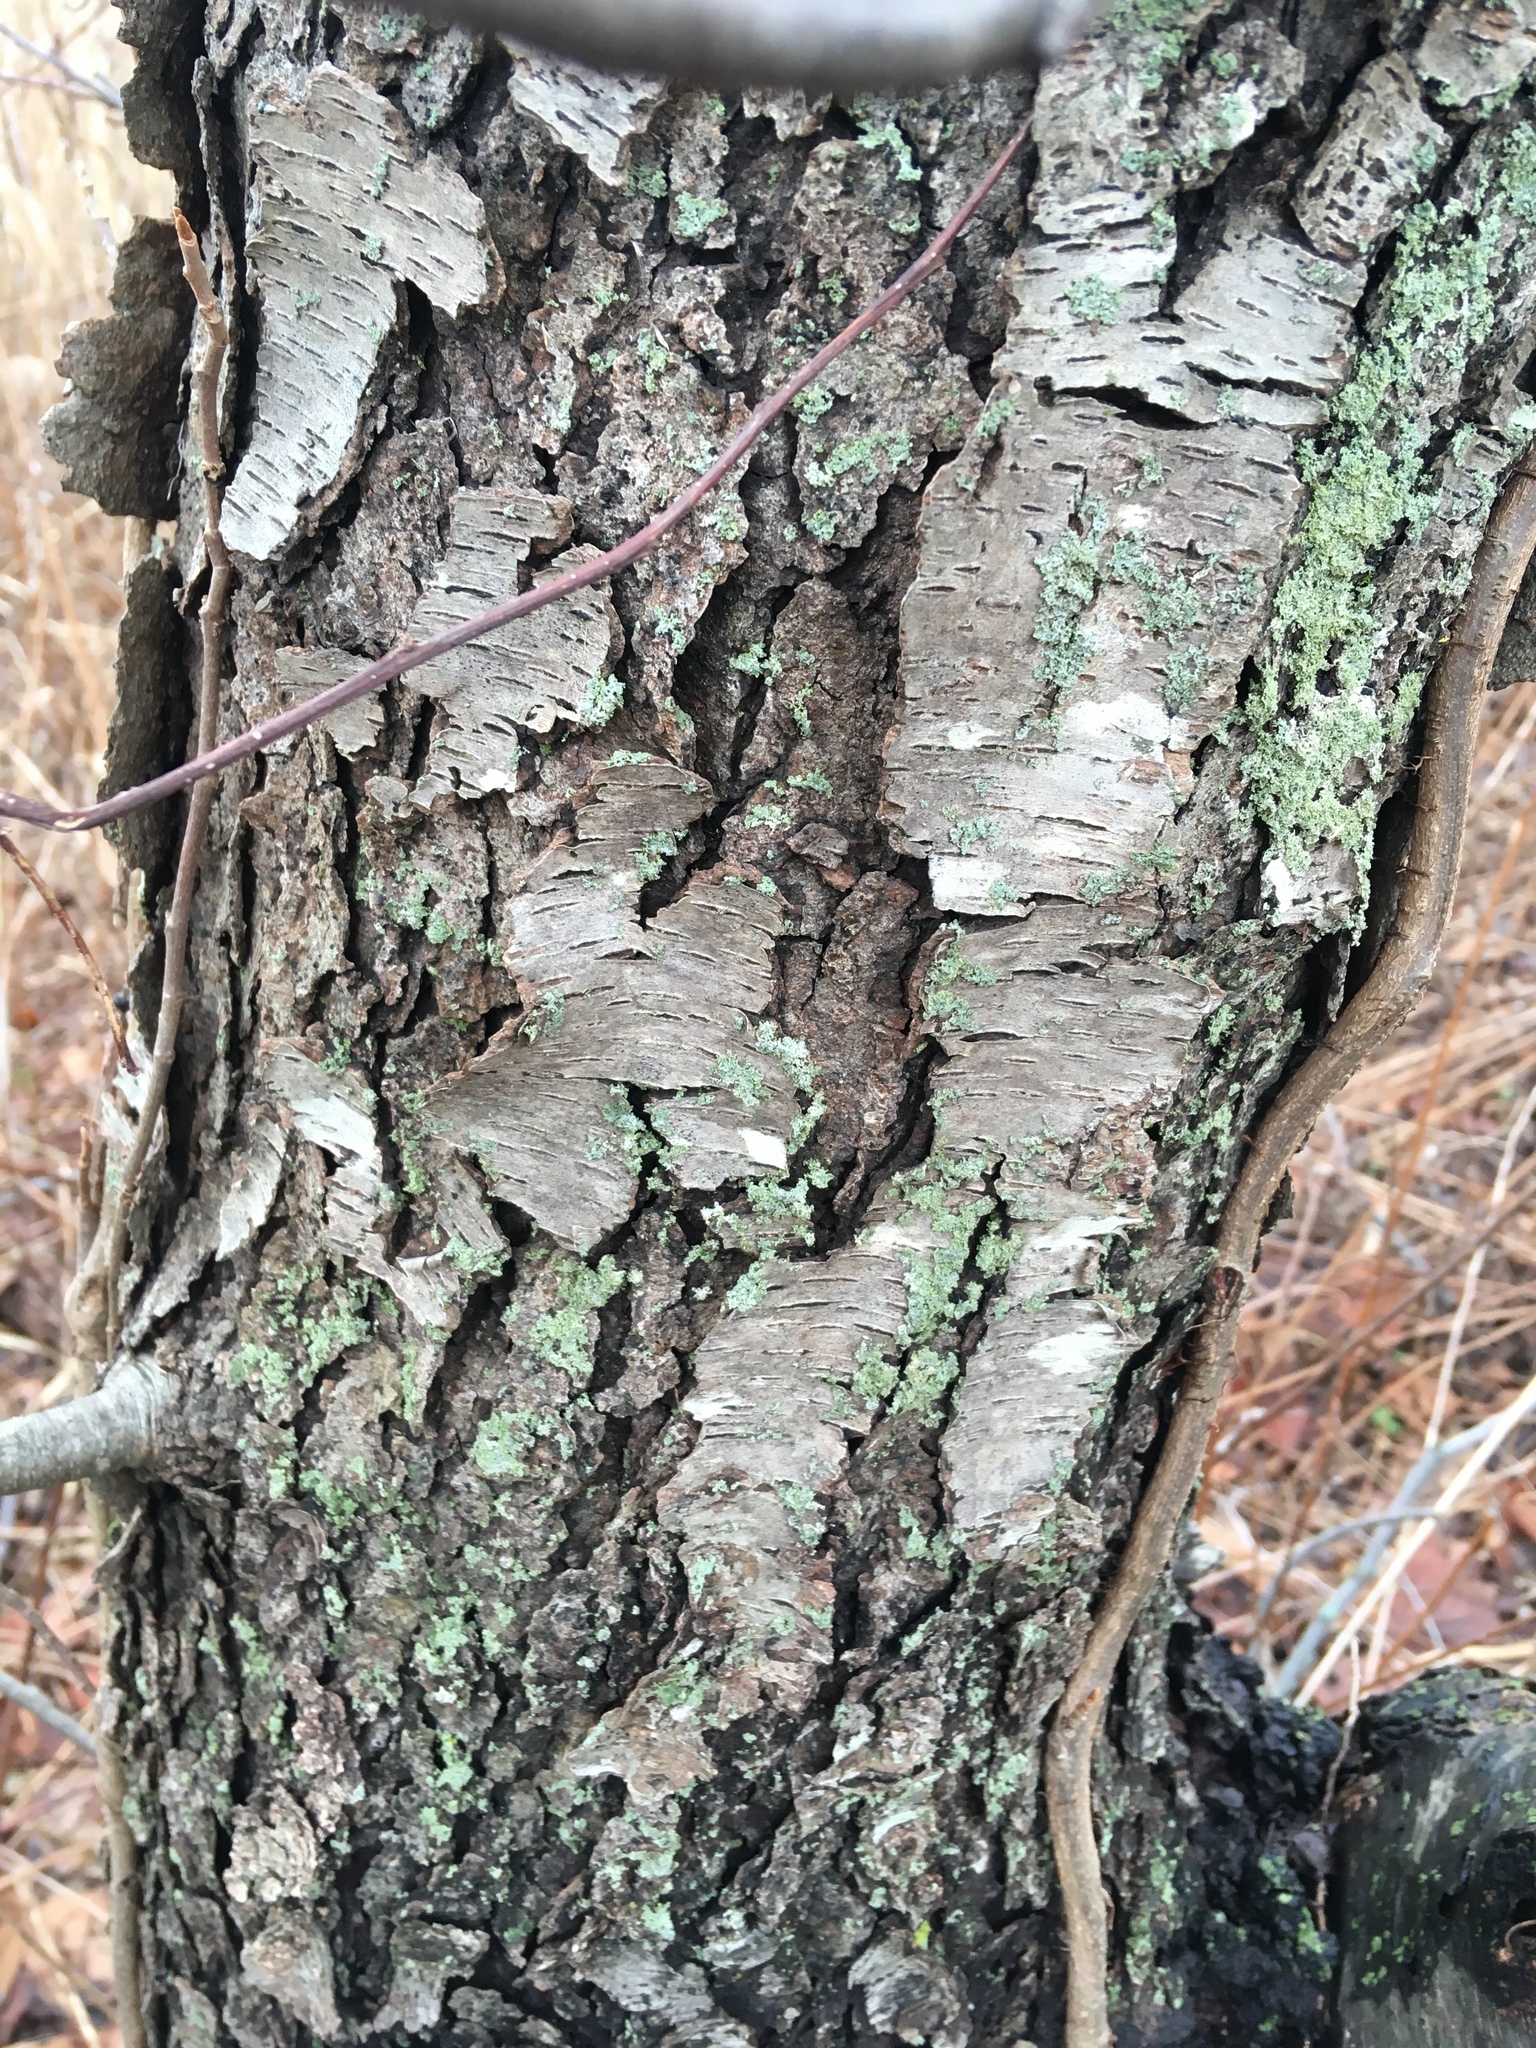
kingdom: Plantae
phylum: Tracheophyta
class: Magnoliopsida
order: Rosales
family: Rosaceae
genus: Prunus
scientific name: Prunus serotina
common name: Black cherry
